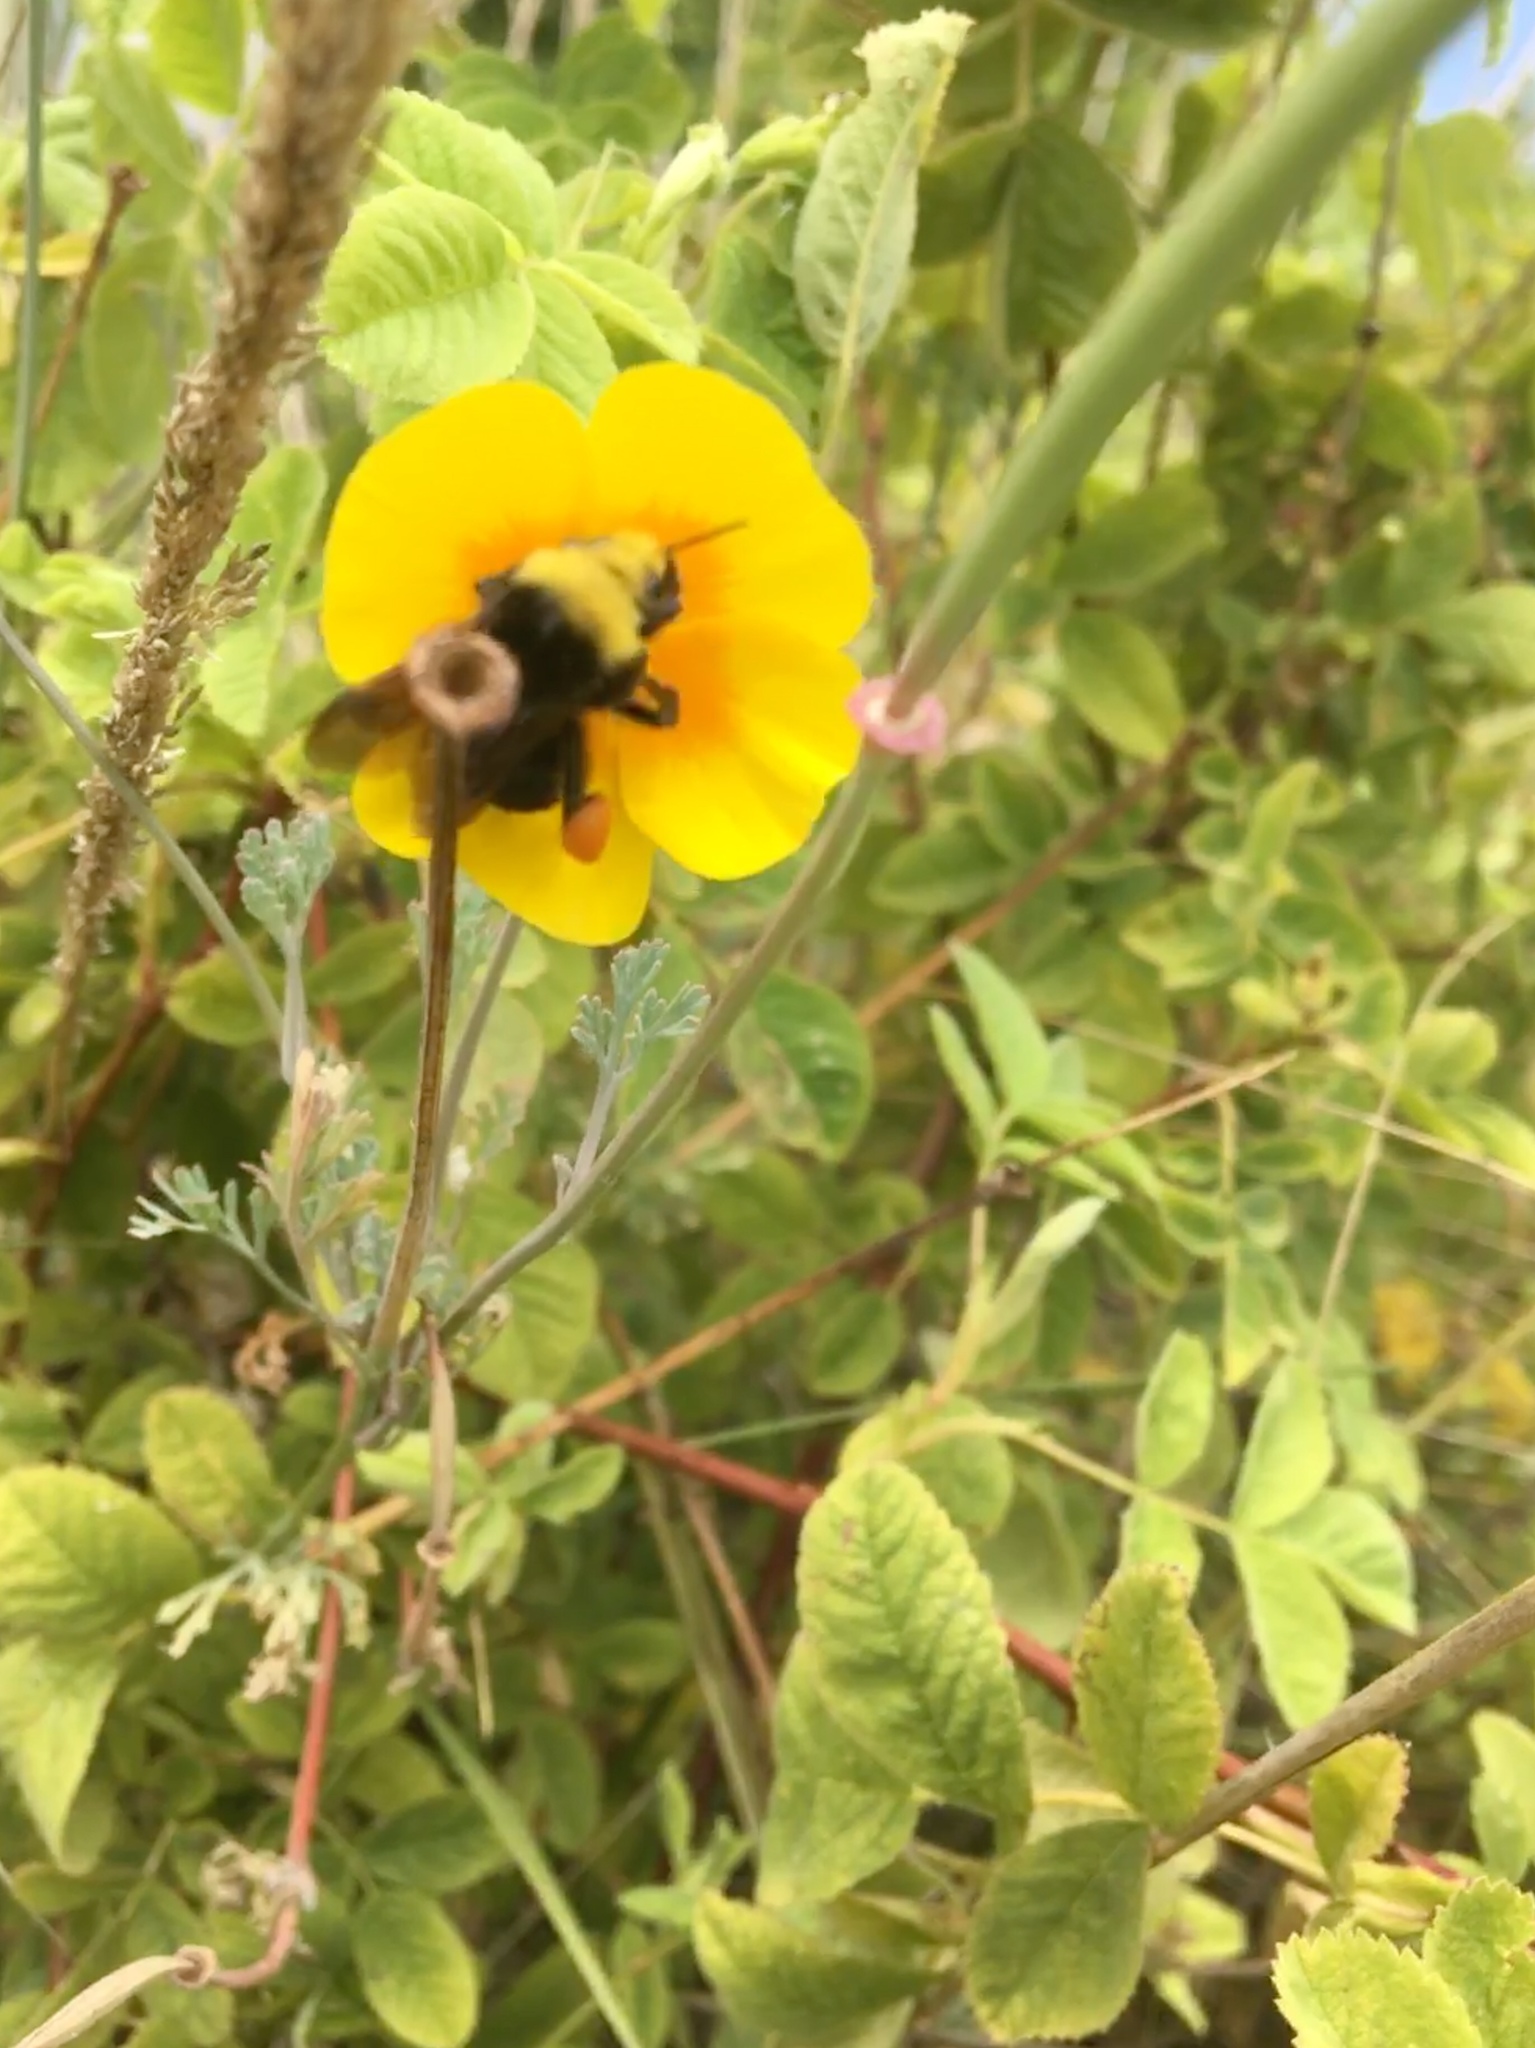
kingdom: Animalia
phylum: Arthropoda
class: Insecta
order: Hymenoptera
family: Apidae
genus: Bombus
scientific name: Bombus vosnesenskii
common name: Vosnesensky bumble bee
